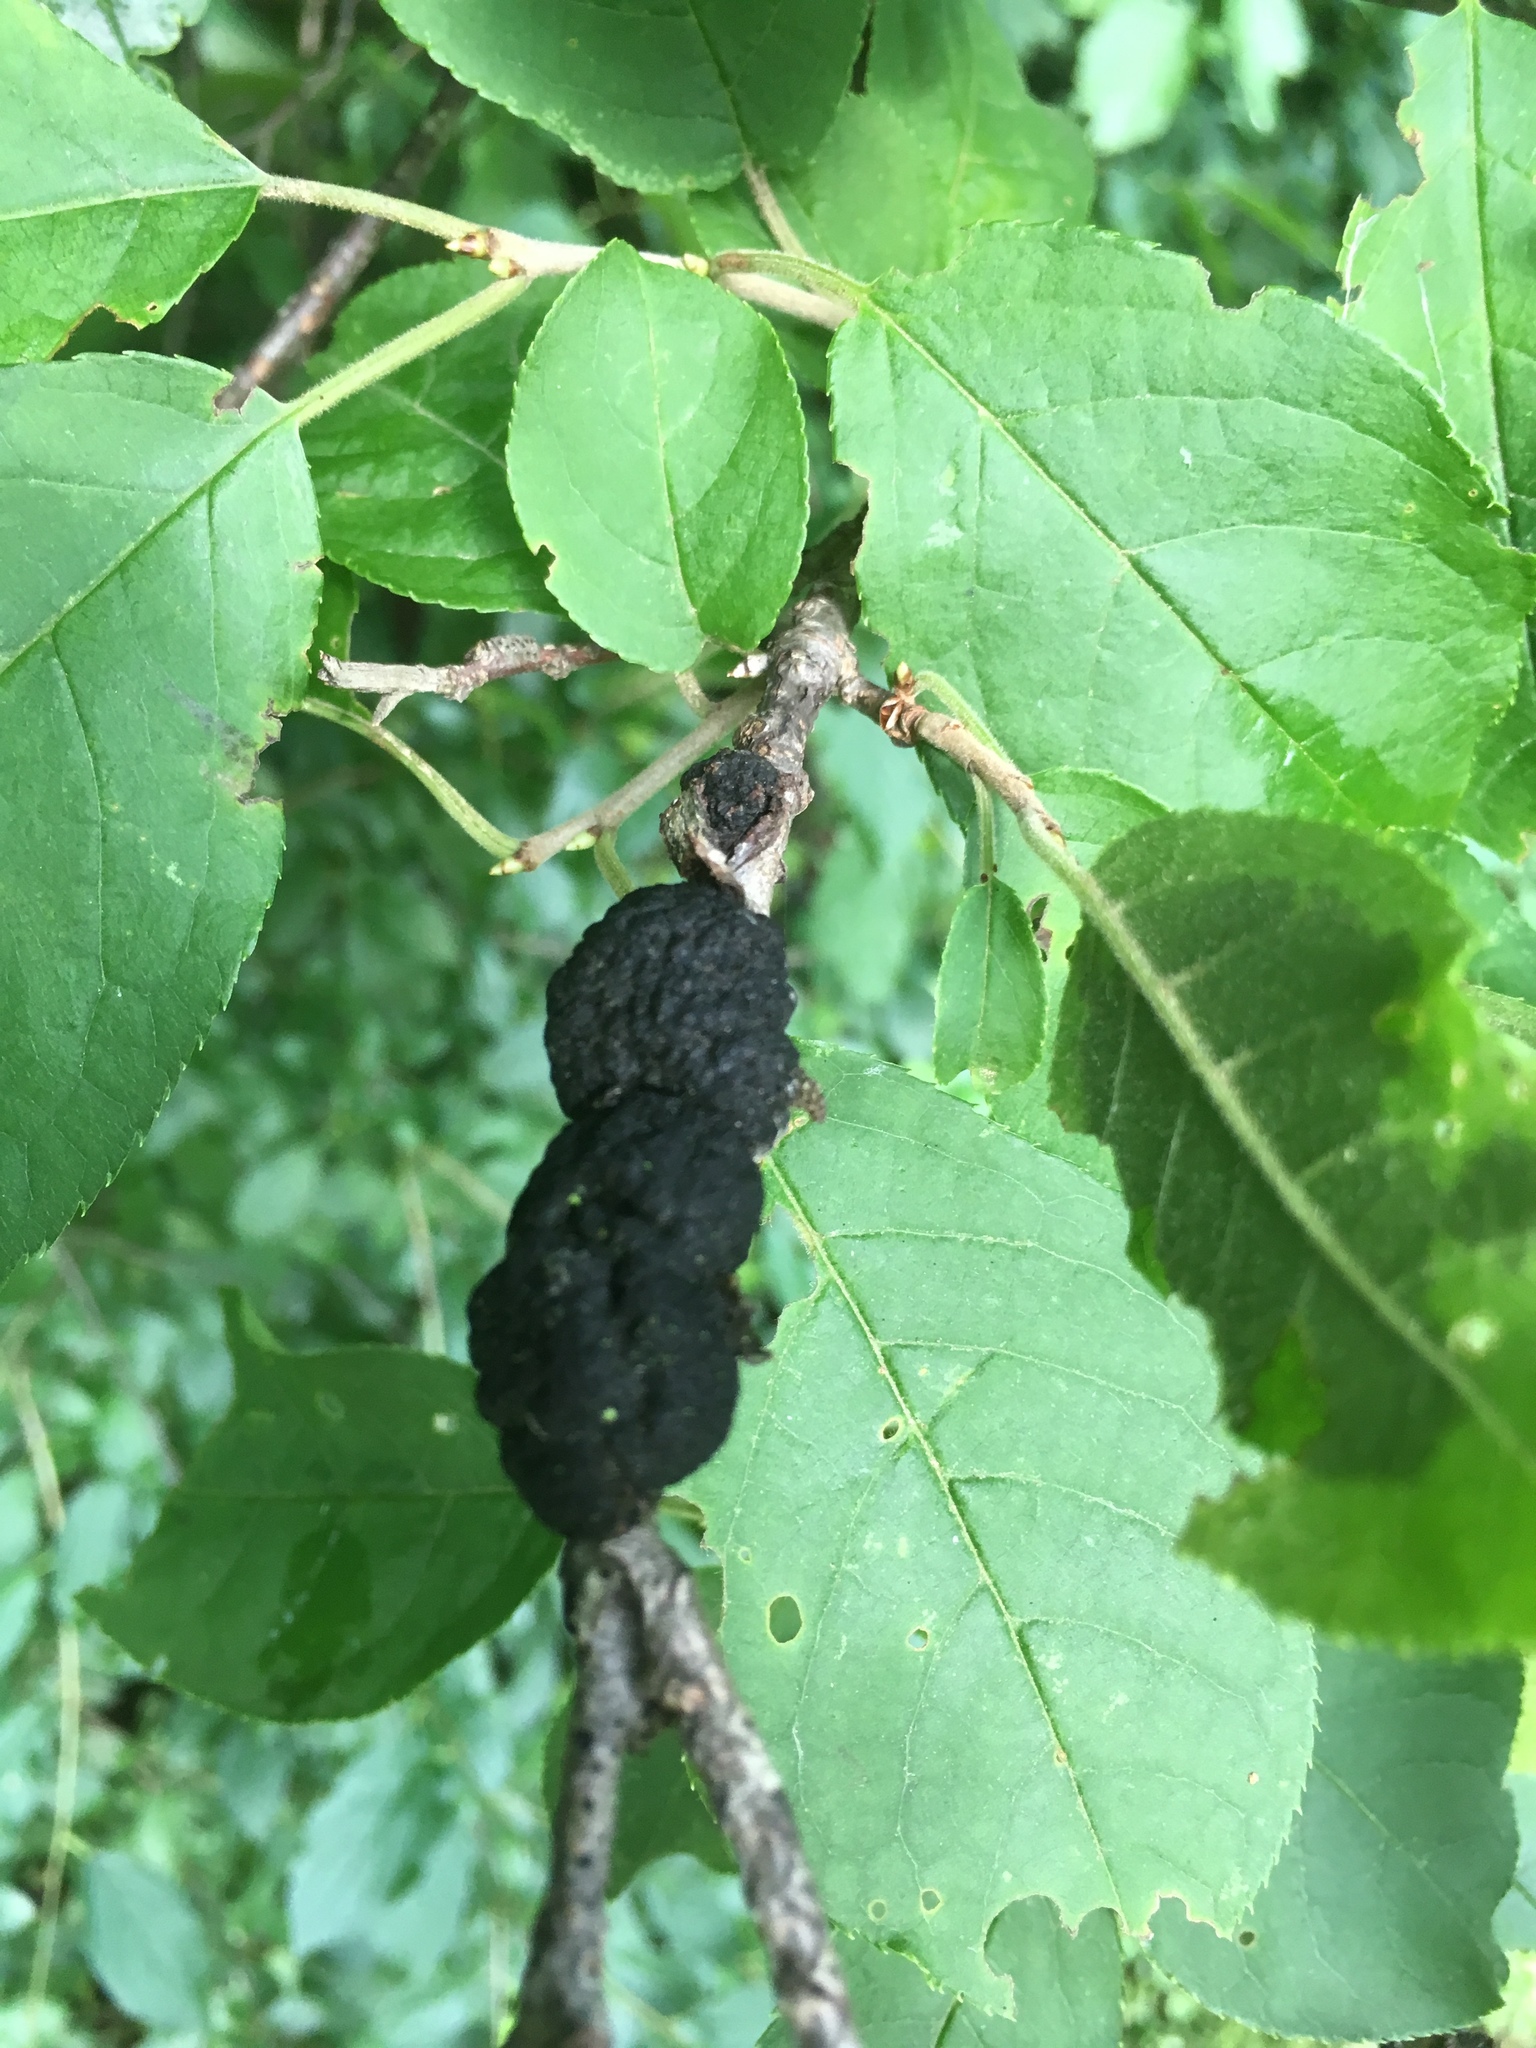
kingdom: Fungi
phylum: Ascomycota
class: Dothideomycetes
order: Venturiales
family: Venturiaceae
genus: Apiosporina
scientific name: Apiosporina morbosa
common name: Black knot
